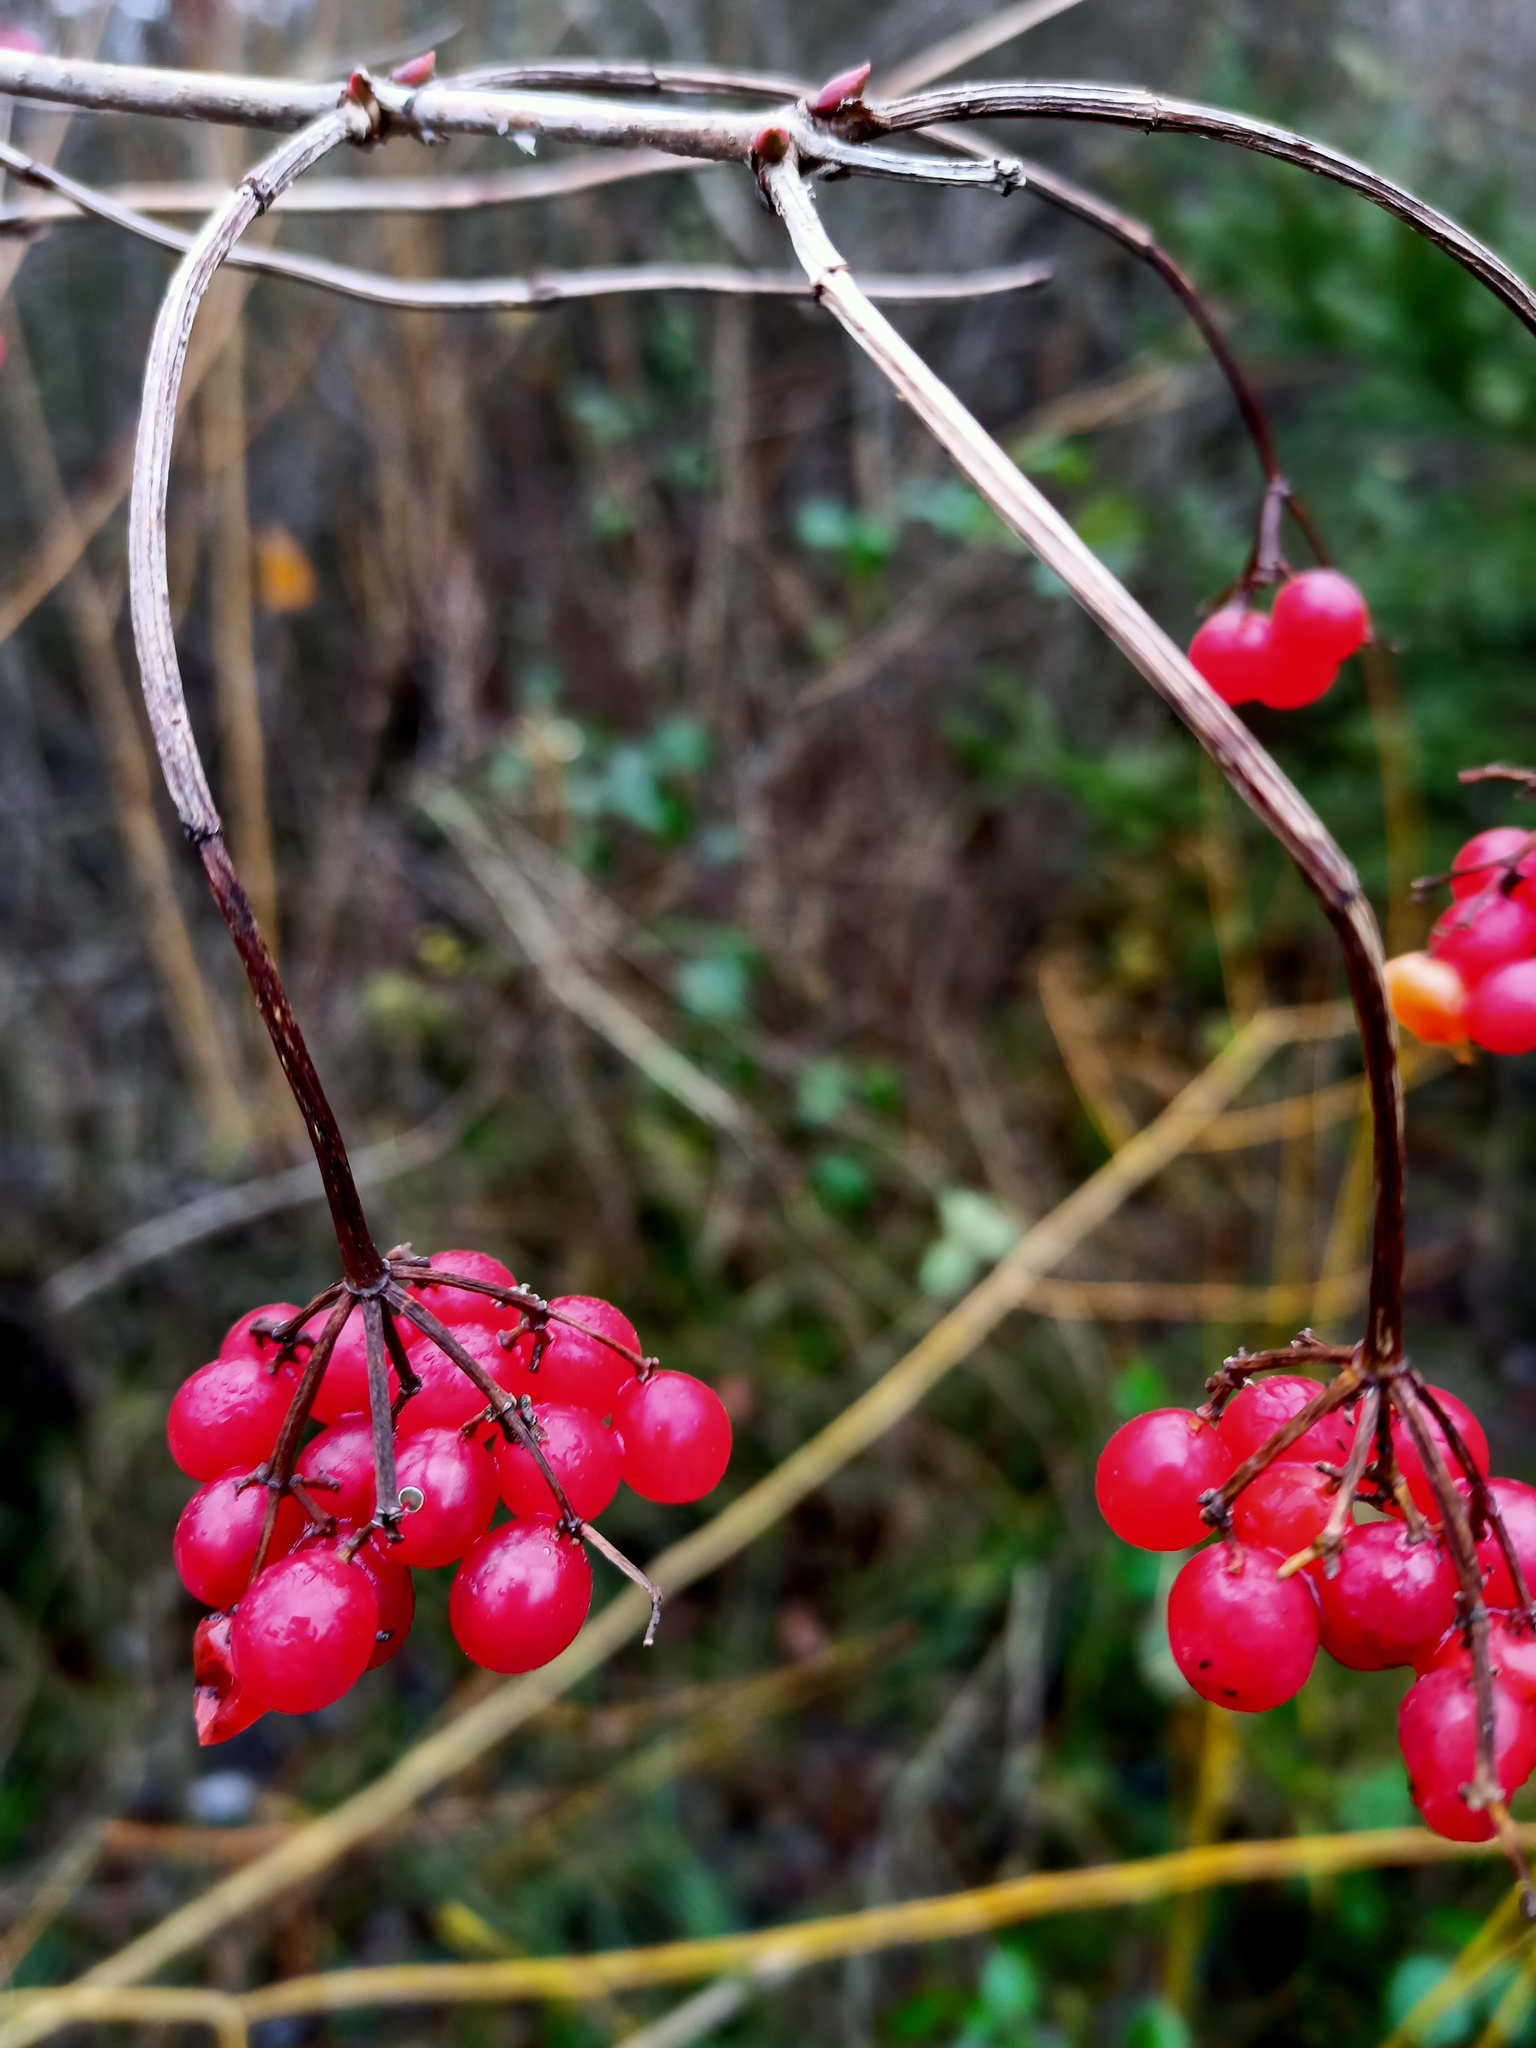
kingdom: Plantae
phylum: Tracheophyta
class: Magnoliopsida
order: Dipsacales
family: Viburnaceae
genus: Viburnum
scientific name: Viburnum opulus
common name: Guelder-rose
